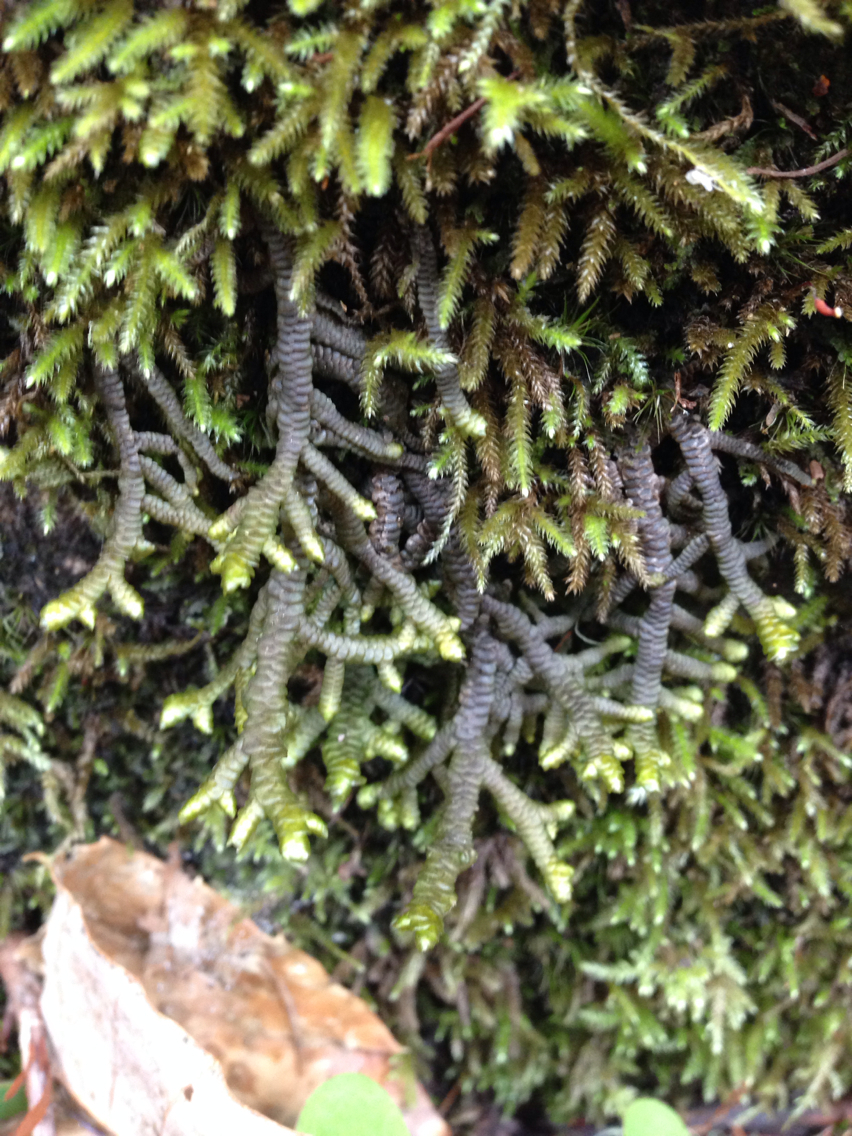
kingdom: Plantae
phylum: Marchantiophyta
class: Jungermanniopsida
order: Porellales
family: Porellaceae
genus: Porella
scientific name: Porella navicularis
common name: Tree ruffle liverwort
